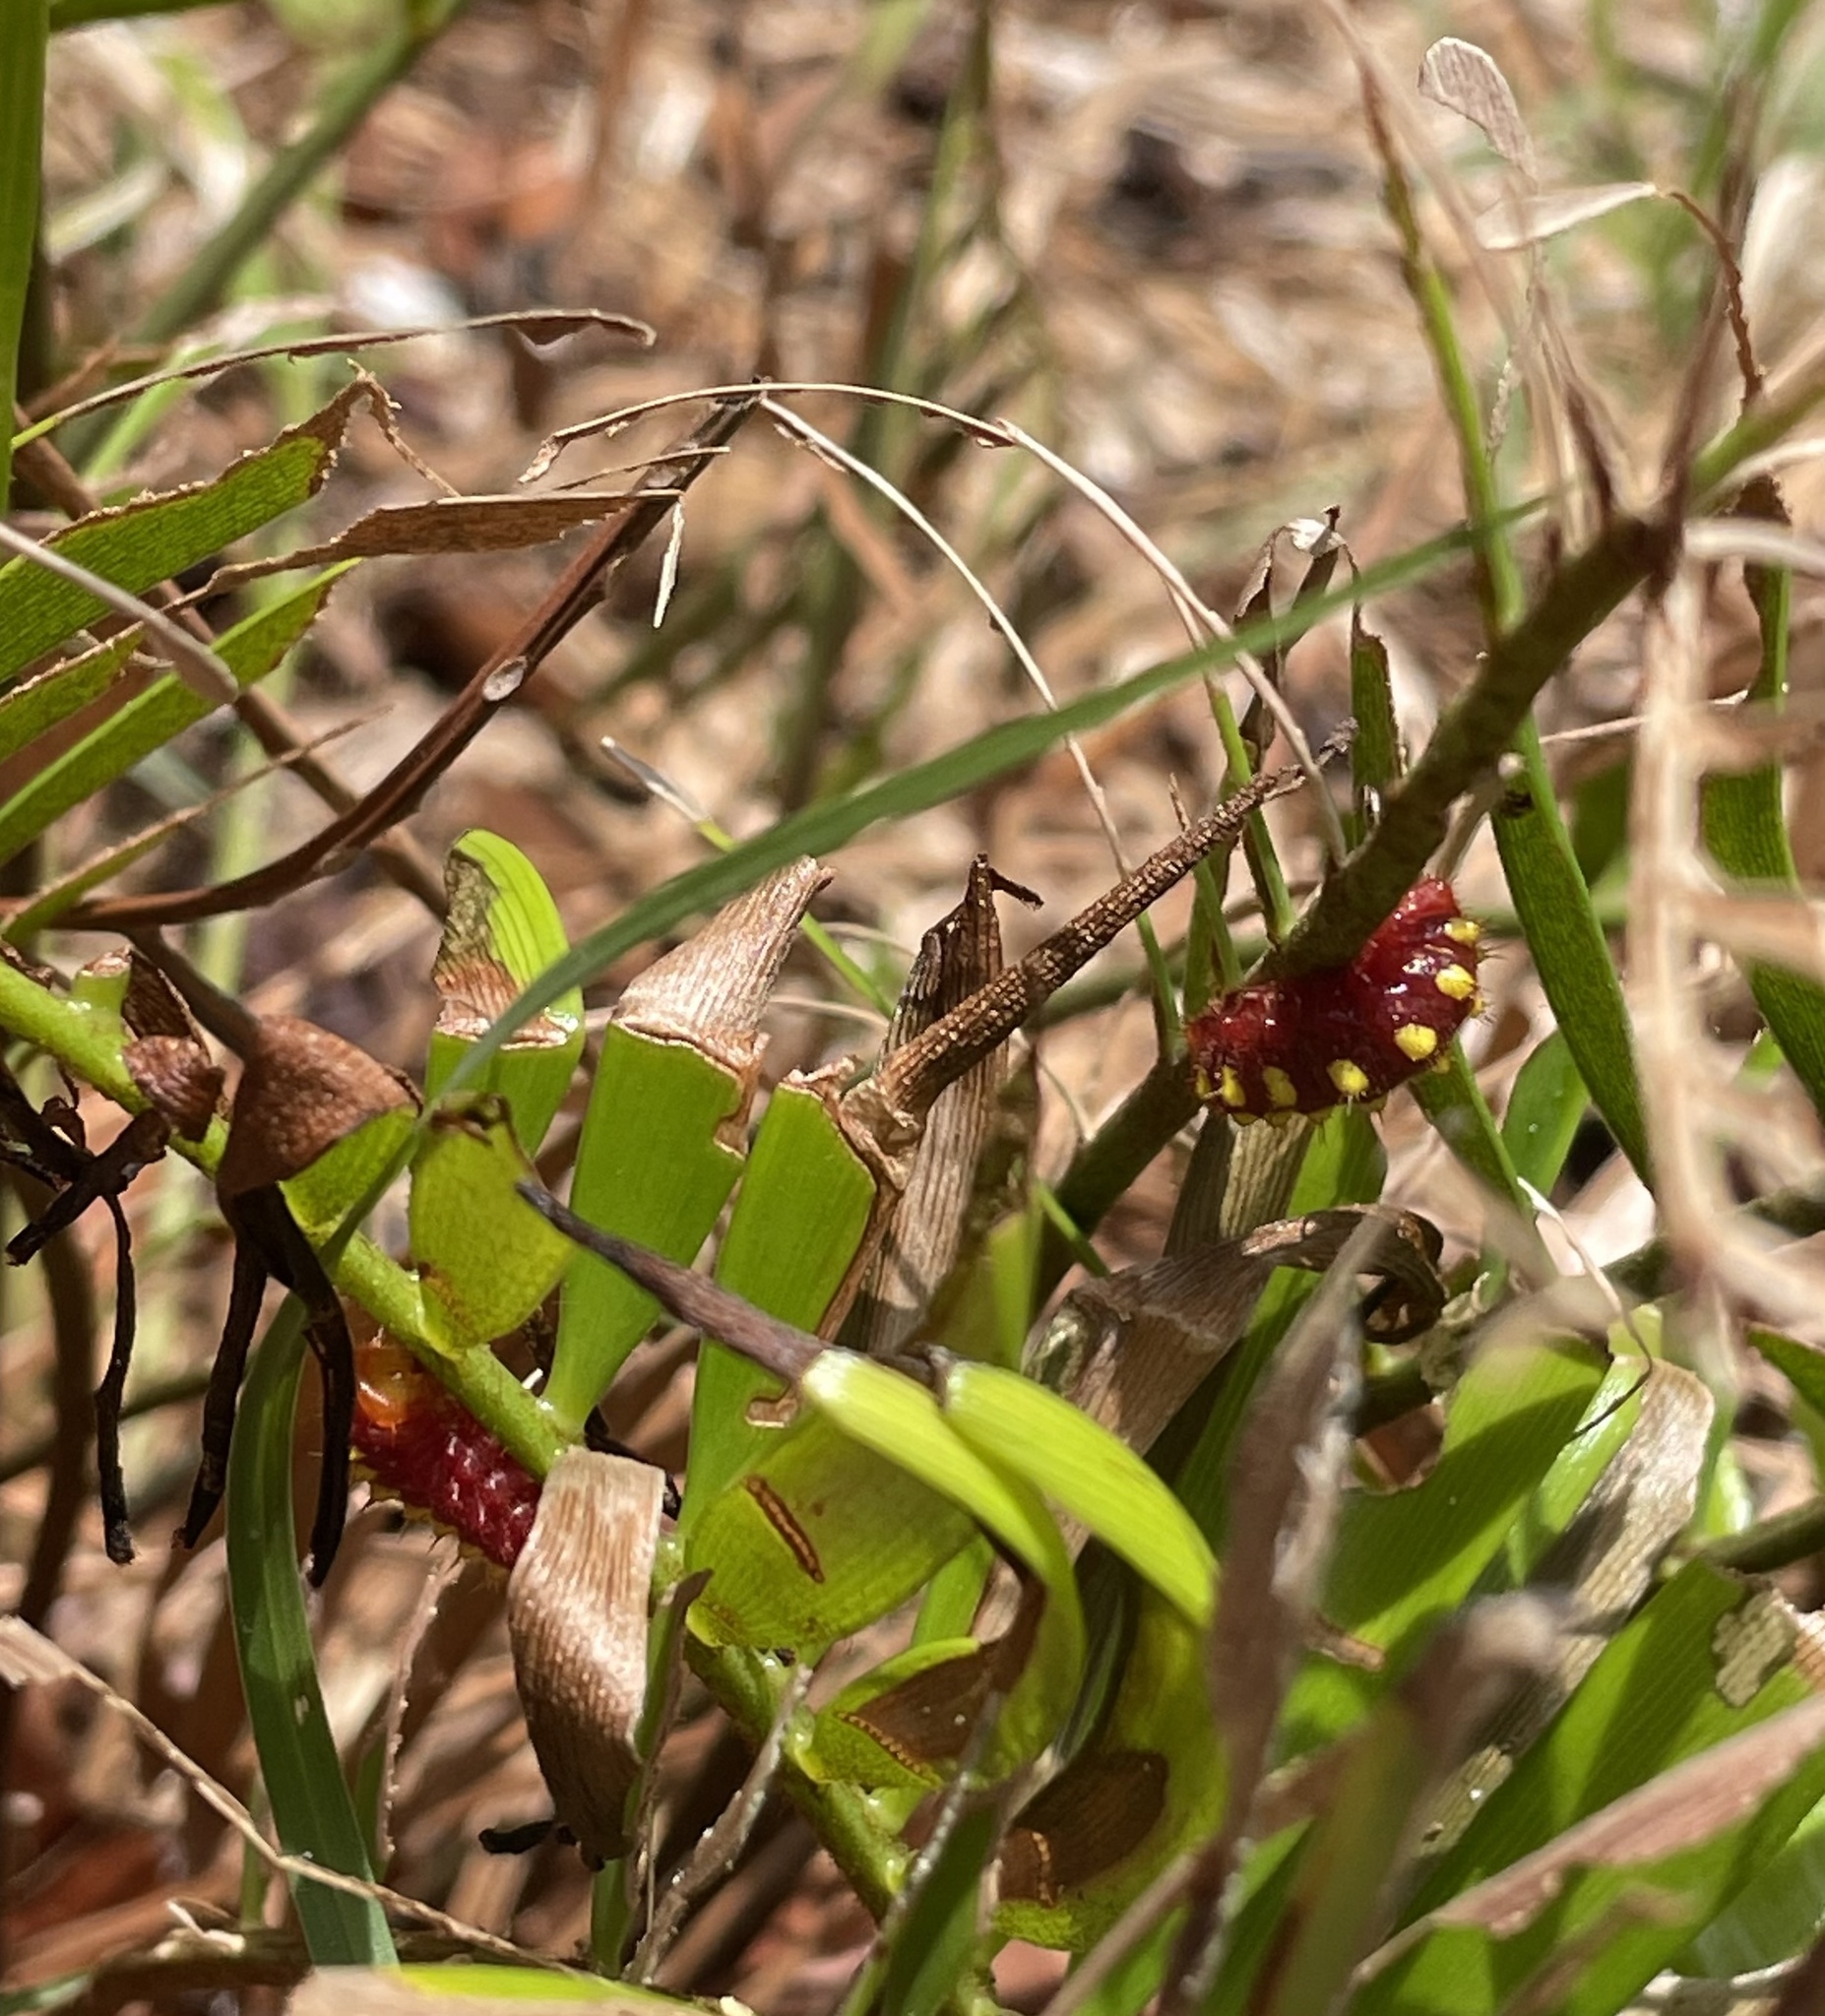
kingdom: Animalia
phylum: Arthropoda
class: Insecta
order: Lepidoptera
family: Lycaenidae
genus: Eumaeus
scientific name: Eumaeus atala
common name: Atala
